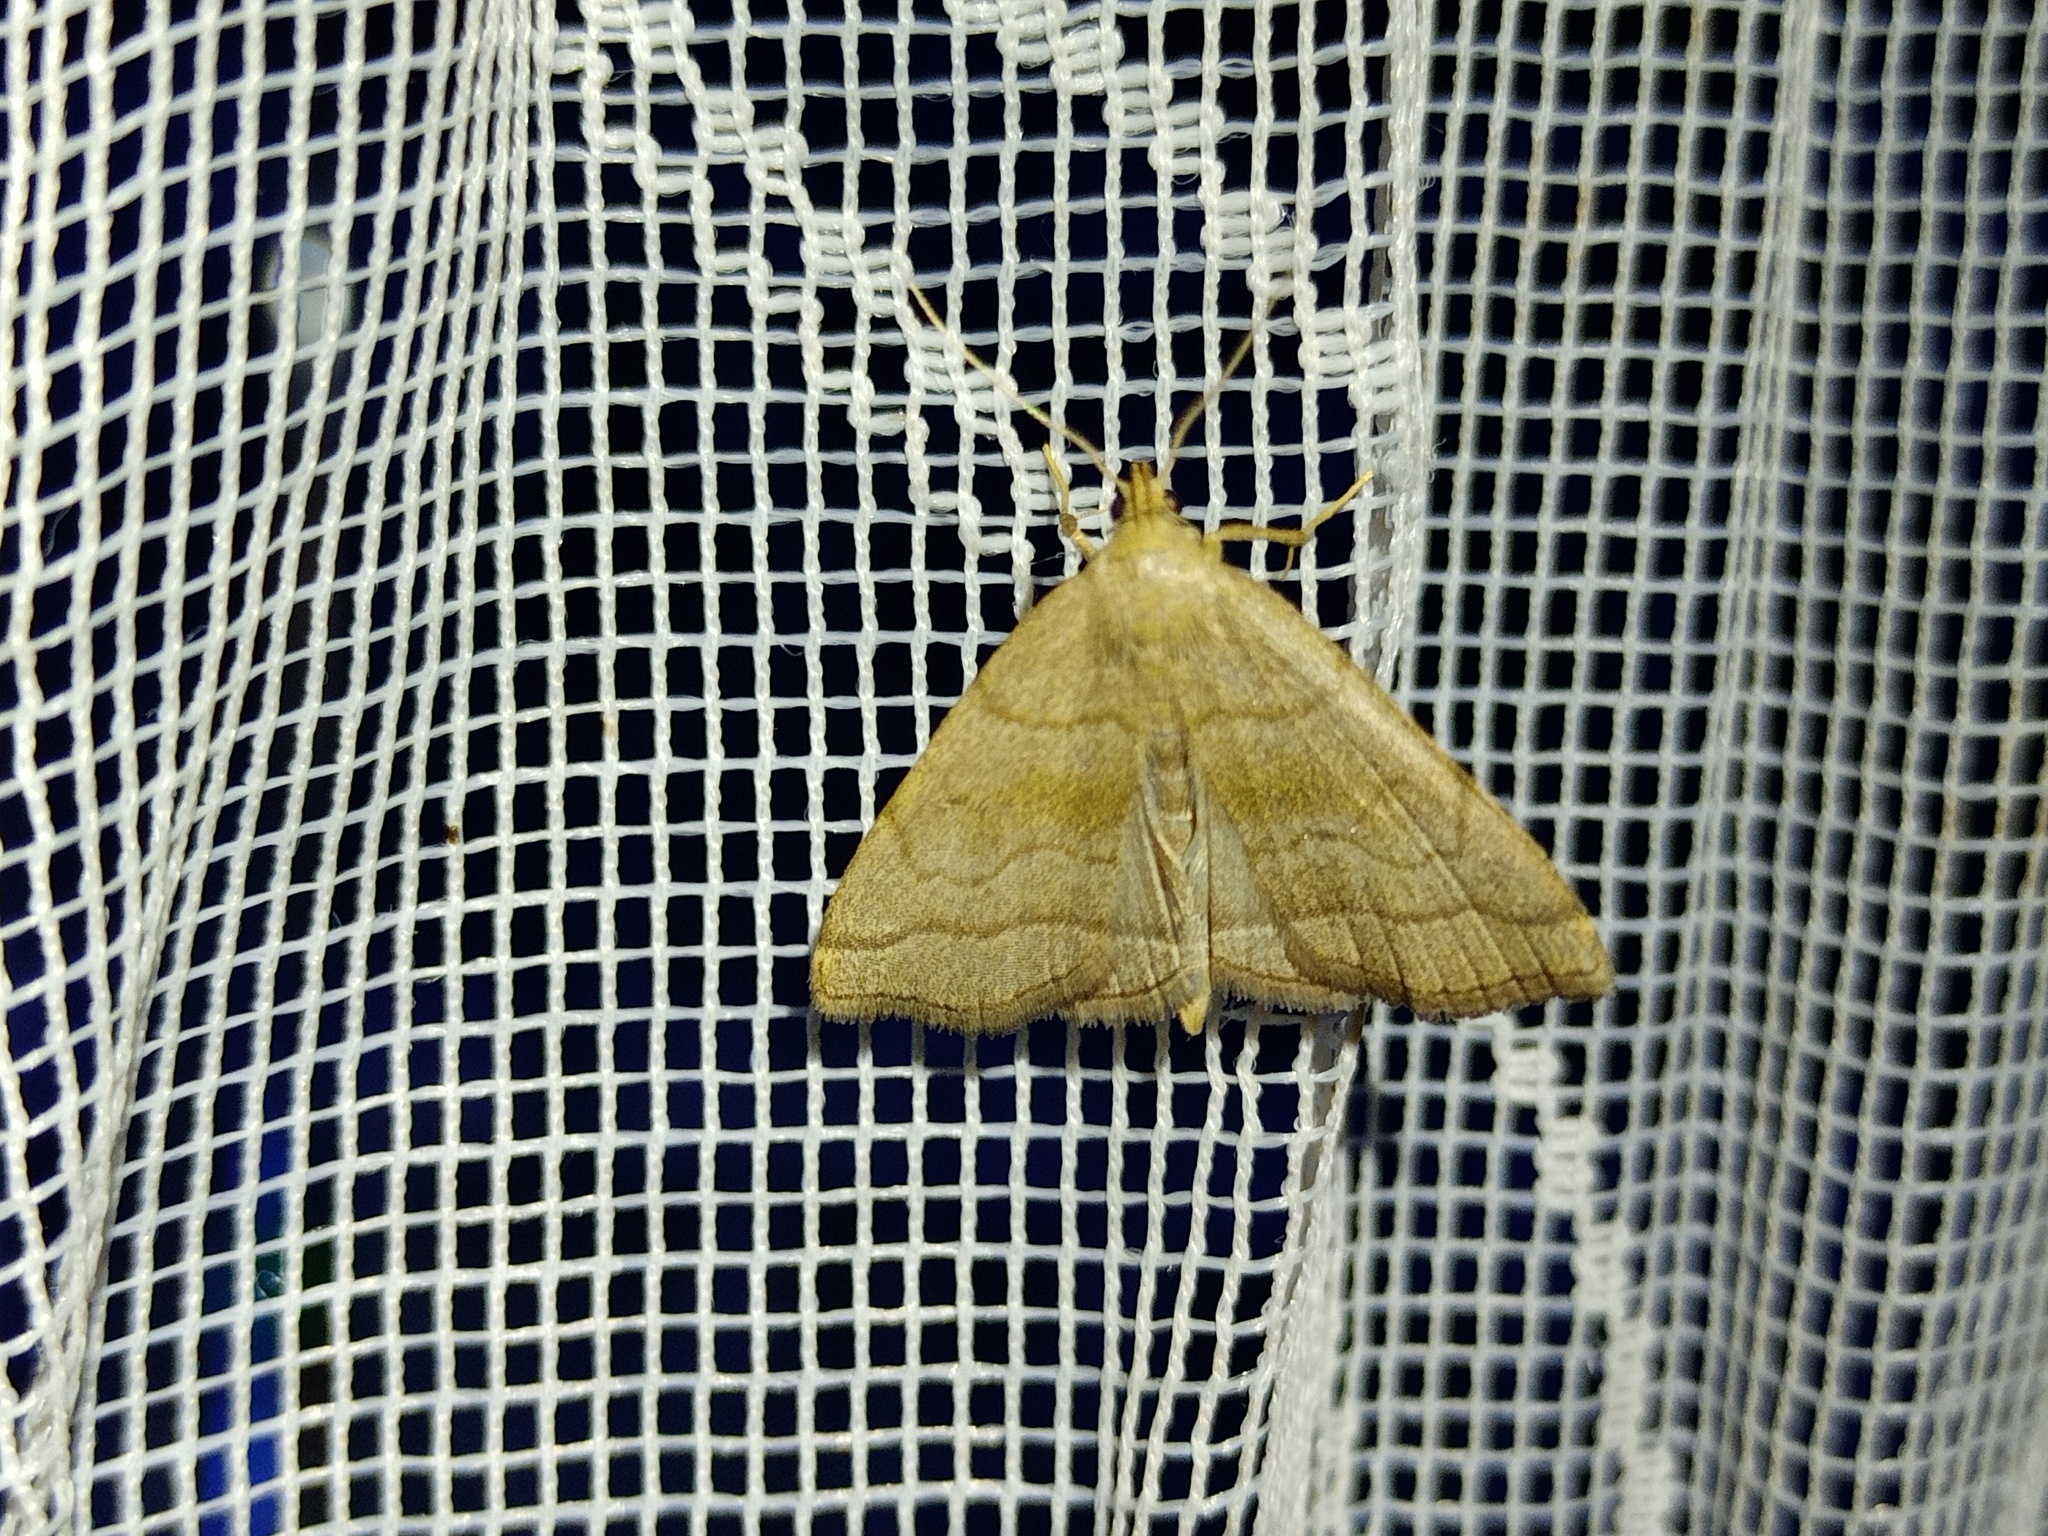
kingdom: Animalia
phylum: Arthropoda
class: Insecta
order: Lepidoptera
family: Erebidae
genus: Herminia
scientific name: Herminia tarsicrinalis
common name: Shaded fan-foot
